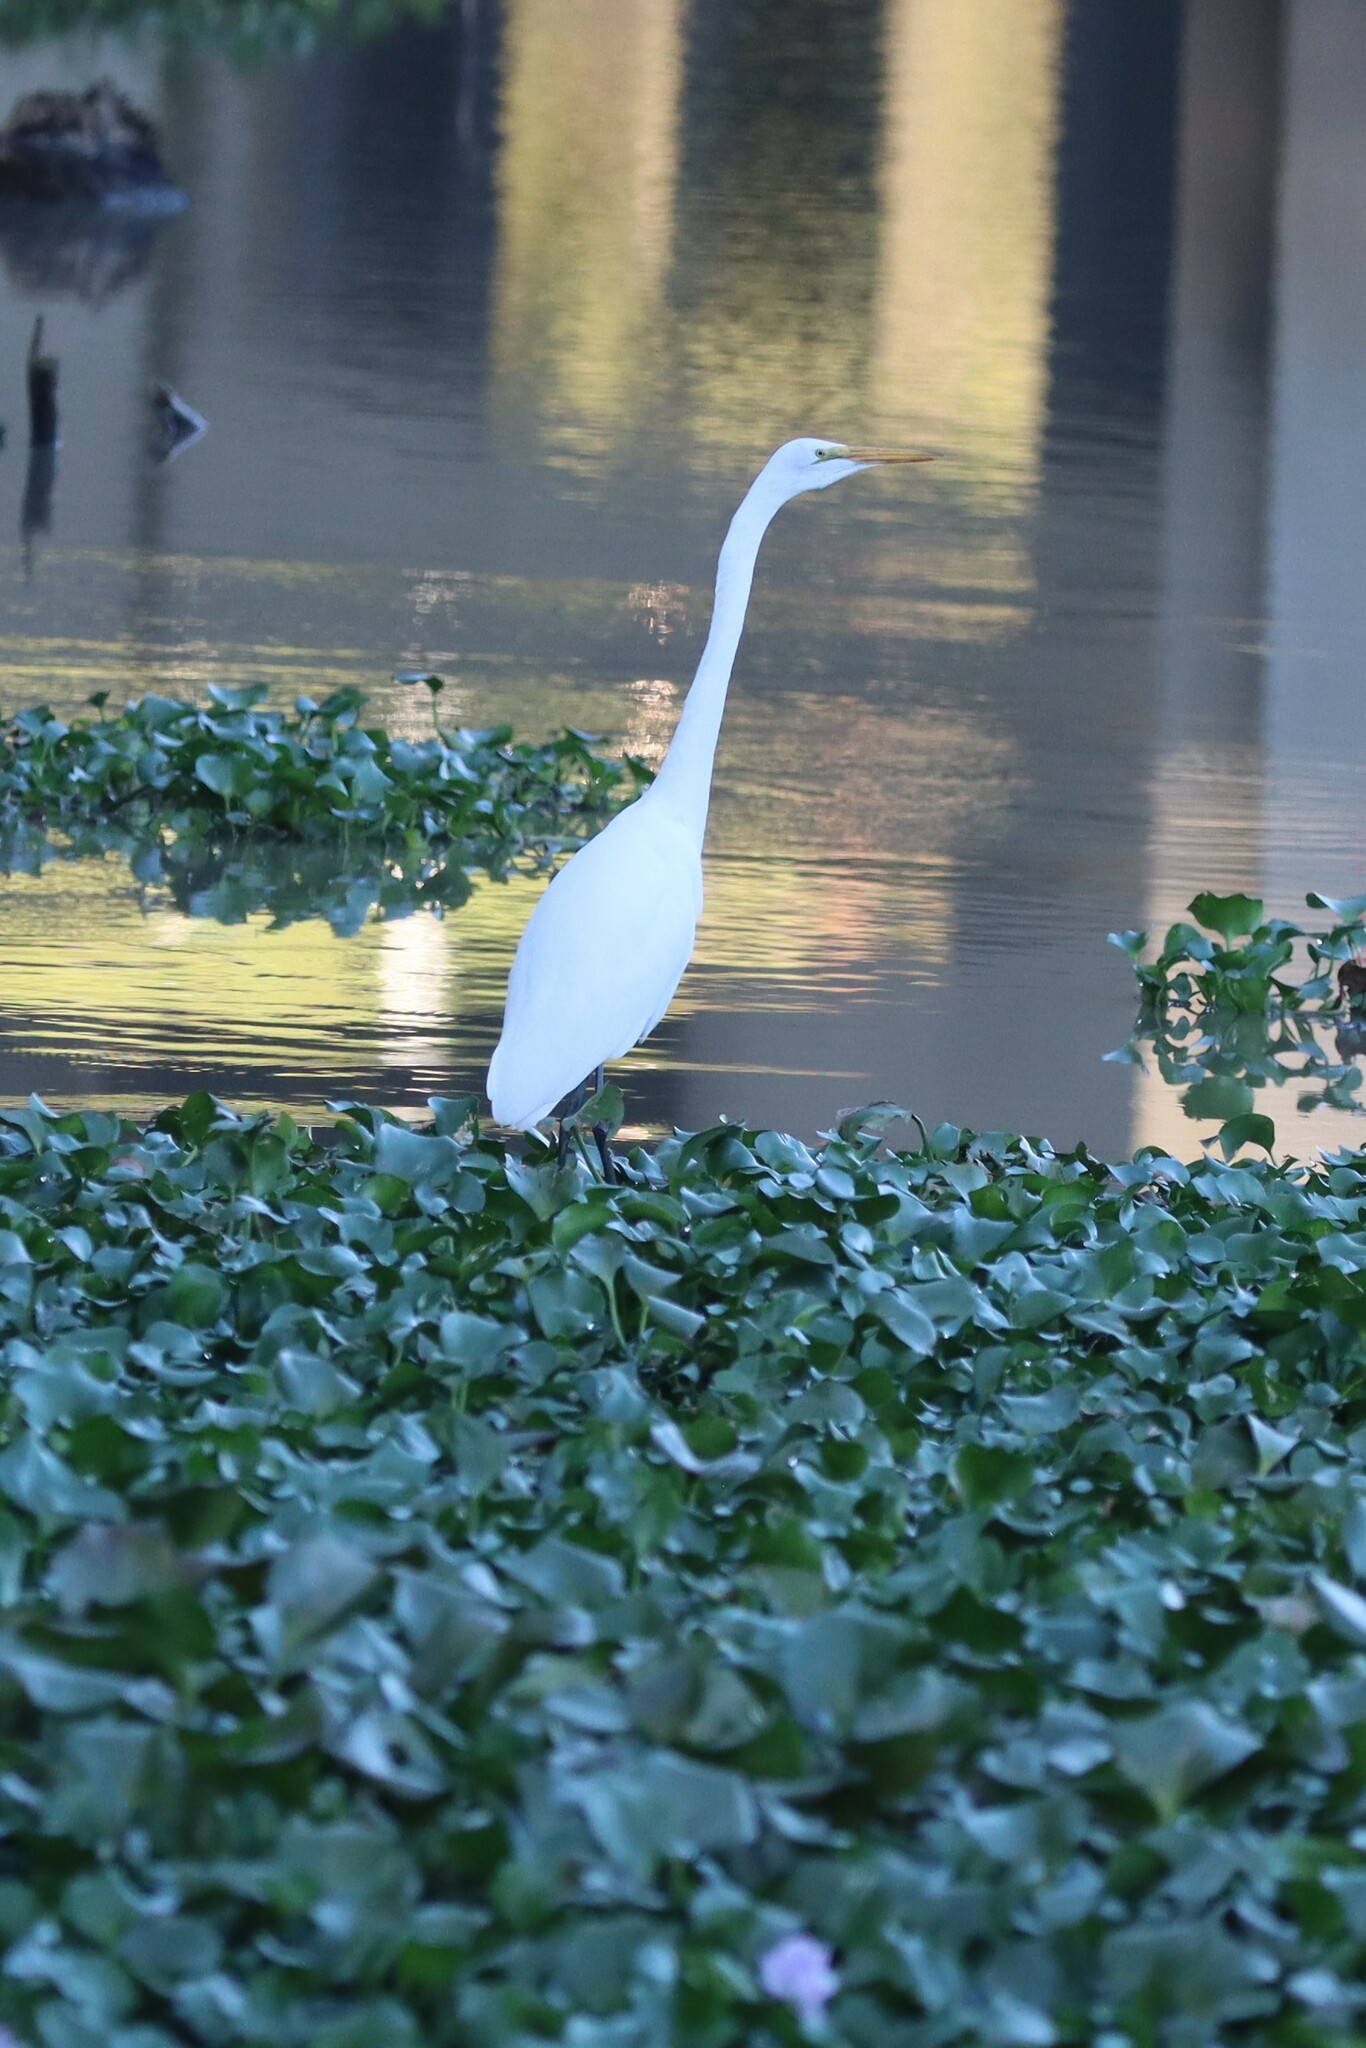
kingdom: Animalia
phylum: Chordata
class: Aves
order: Pelecaniformes
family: Ardeidae
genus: Ardea
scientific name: Ardea alba
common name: Great egret
